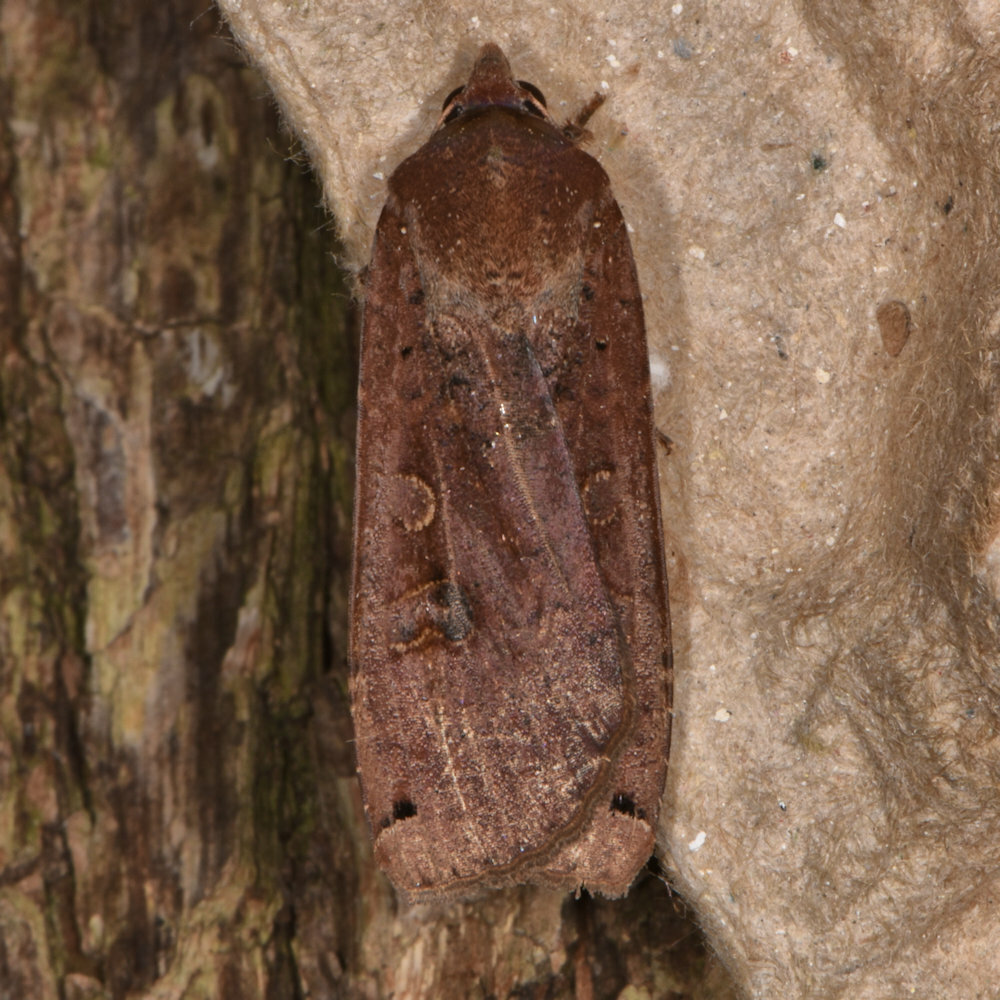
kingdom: Animalia
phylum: Arthropoda
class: Insecta
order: Lepidoptera
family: Noctuidae
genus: Noctua
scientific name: Noctua pronuba
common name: Large yellow underwing
